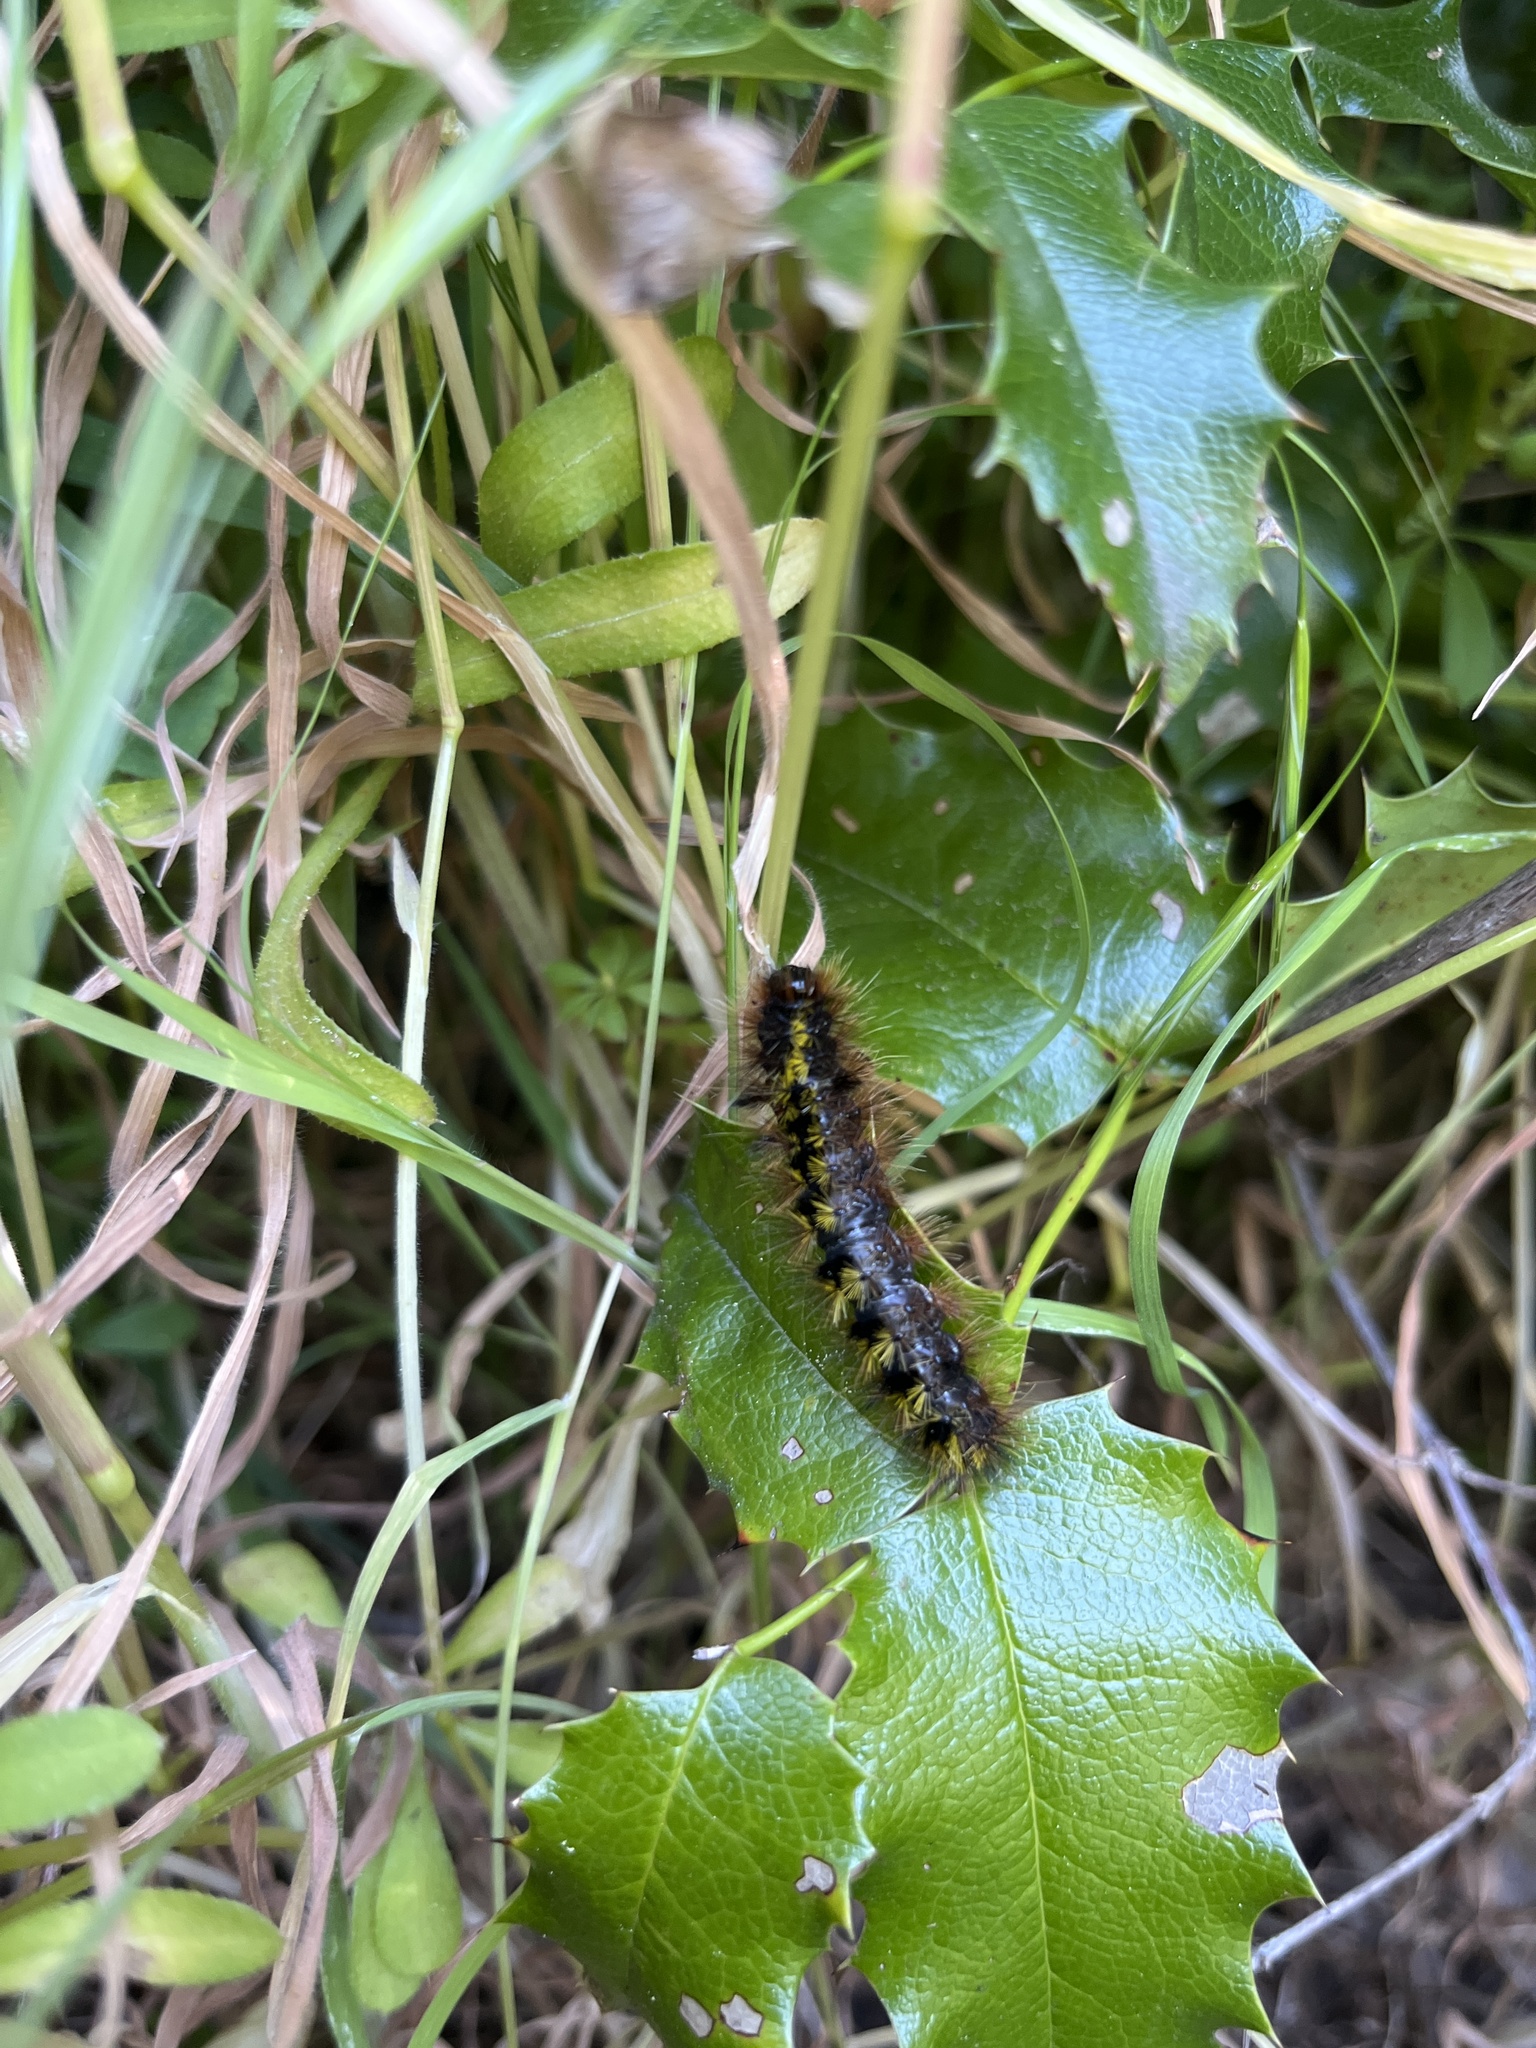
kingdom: Animalia
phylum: Arthropoda
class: Insecta
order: Lepidoptera
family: Erebidae
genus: Lophocampa
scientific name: Lophocampa argentata
